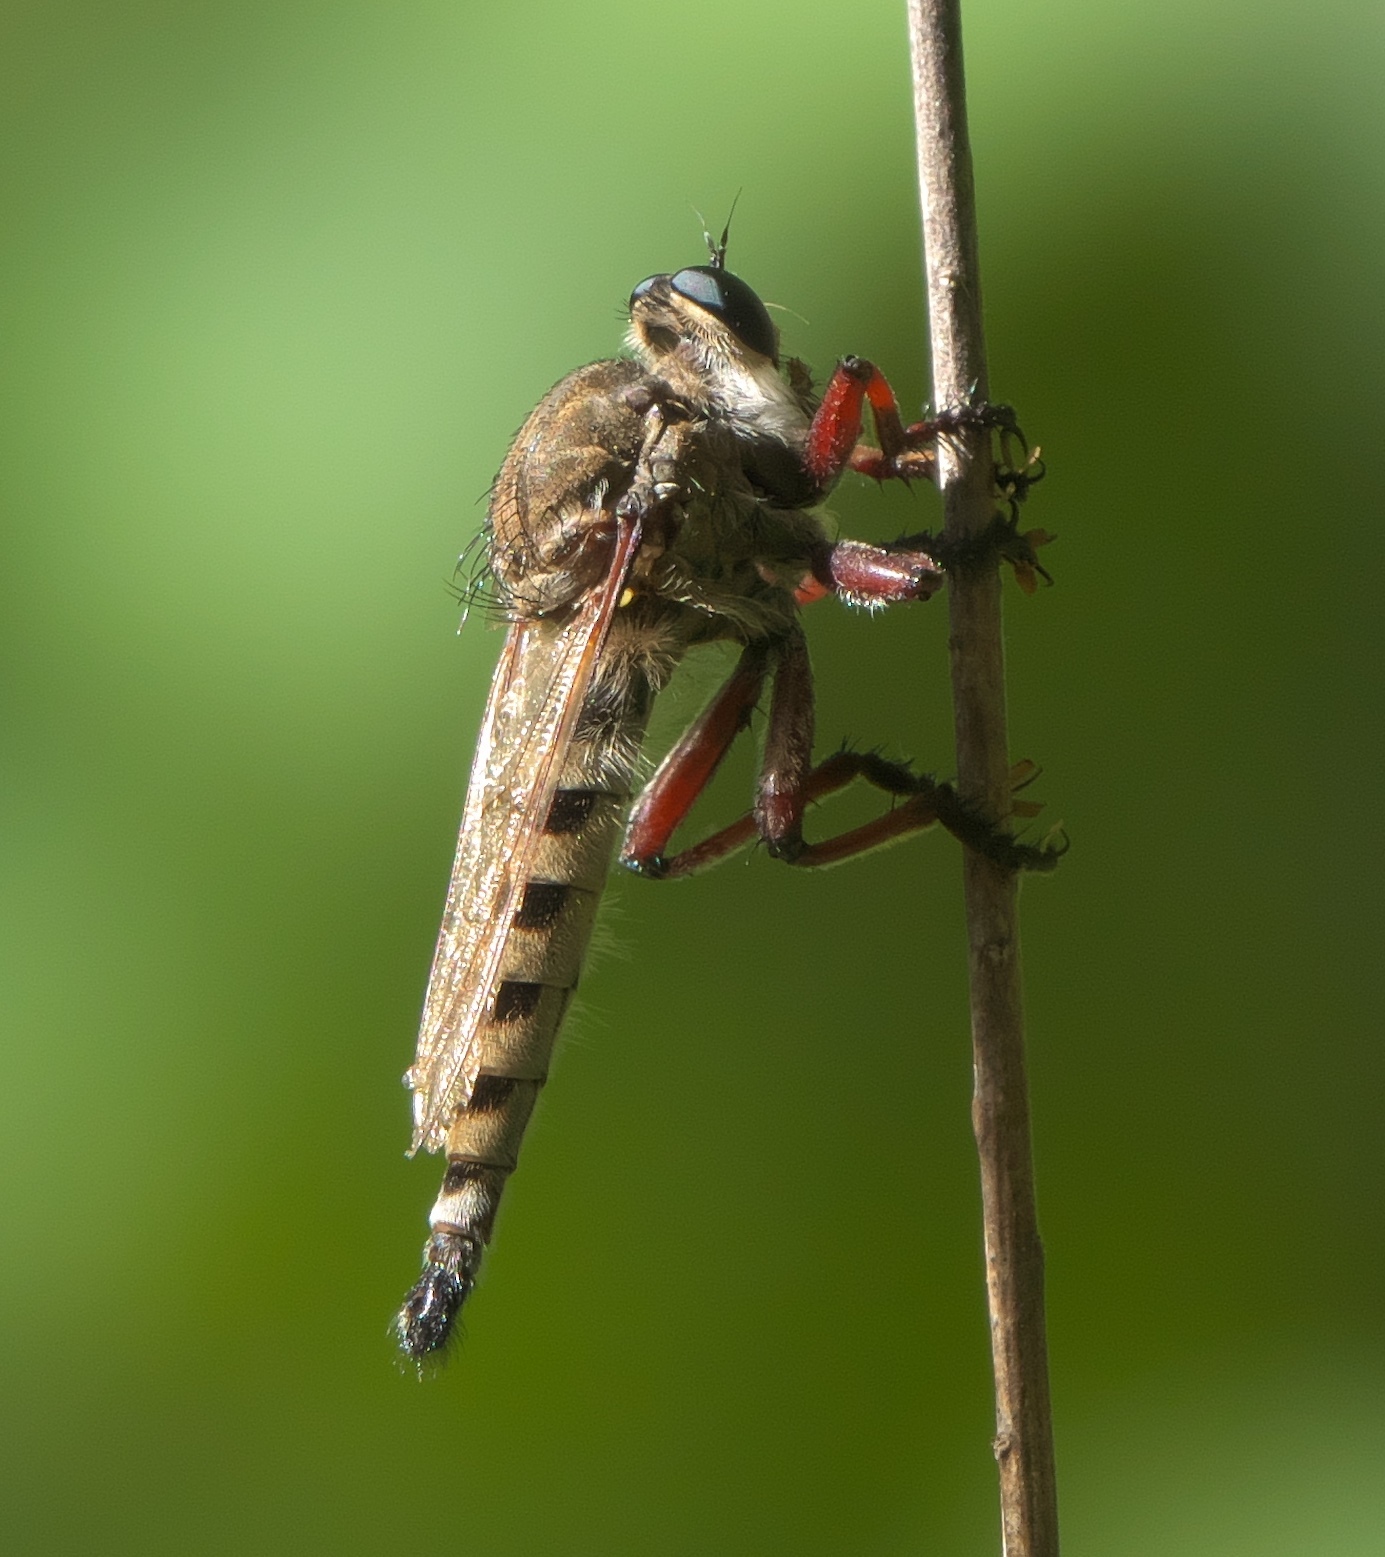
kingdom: Animalia
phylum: Arthropoda
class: Insecta
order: Diptera
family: Asilidae
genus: Promachus
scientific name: Promachus hinei
